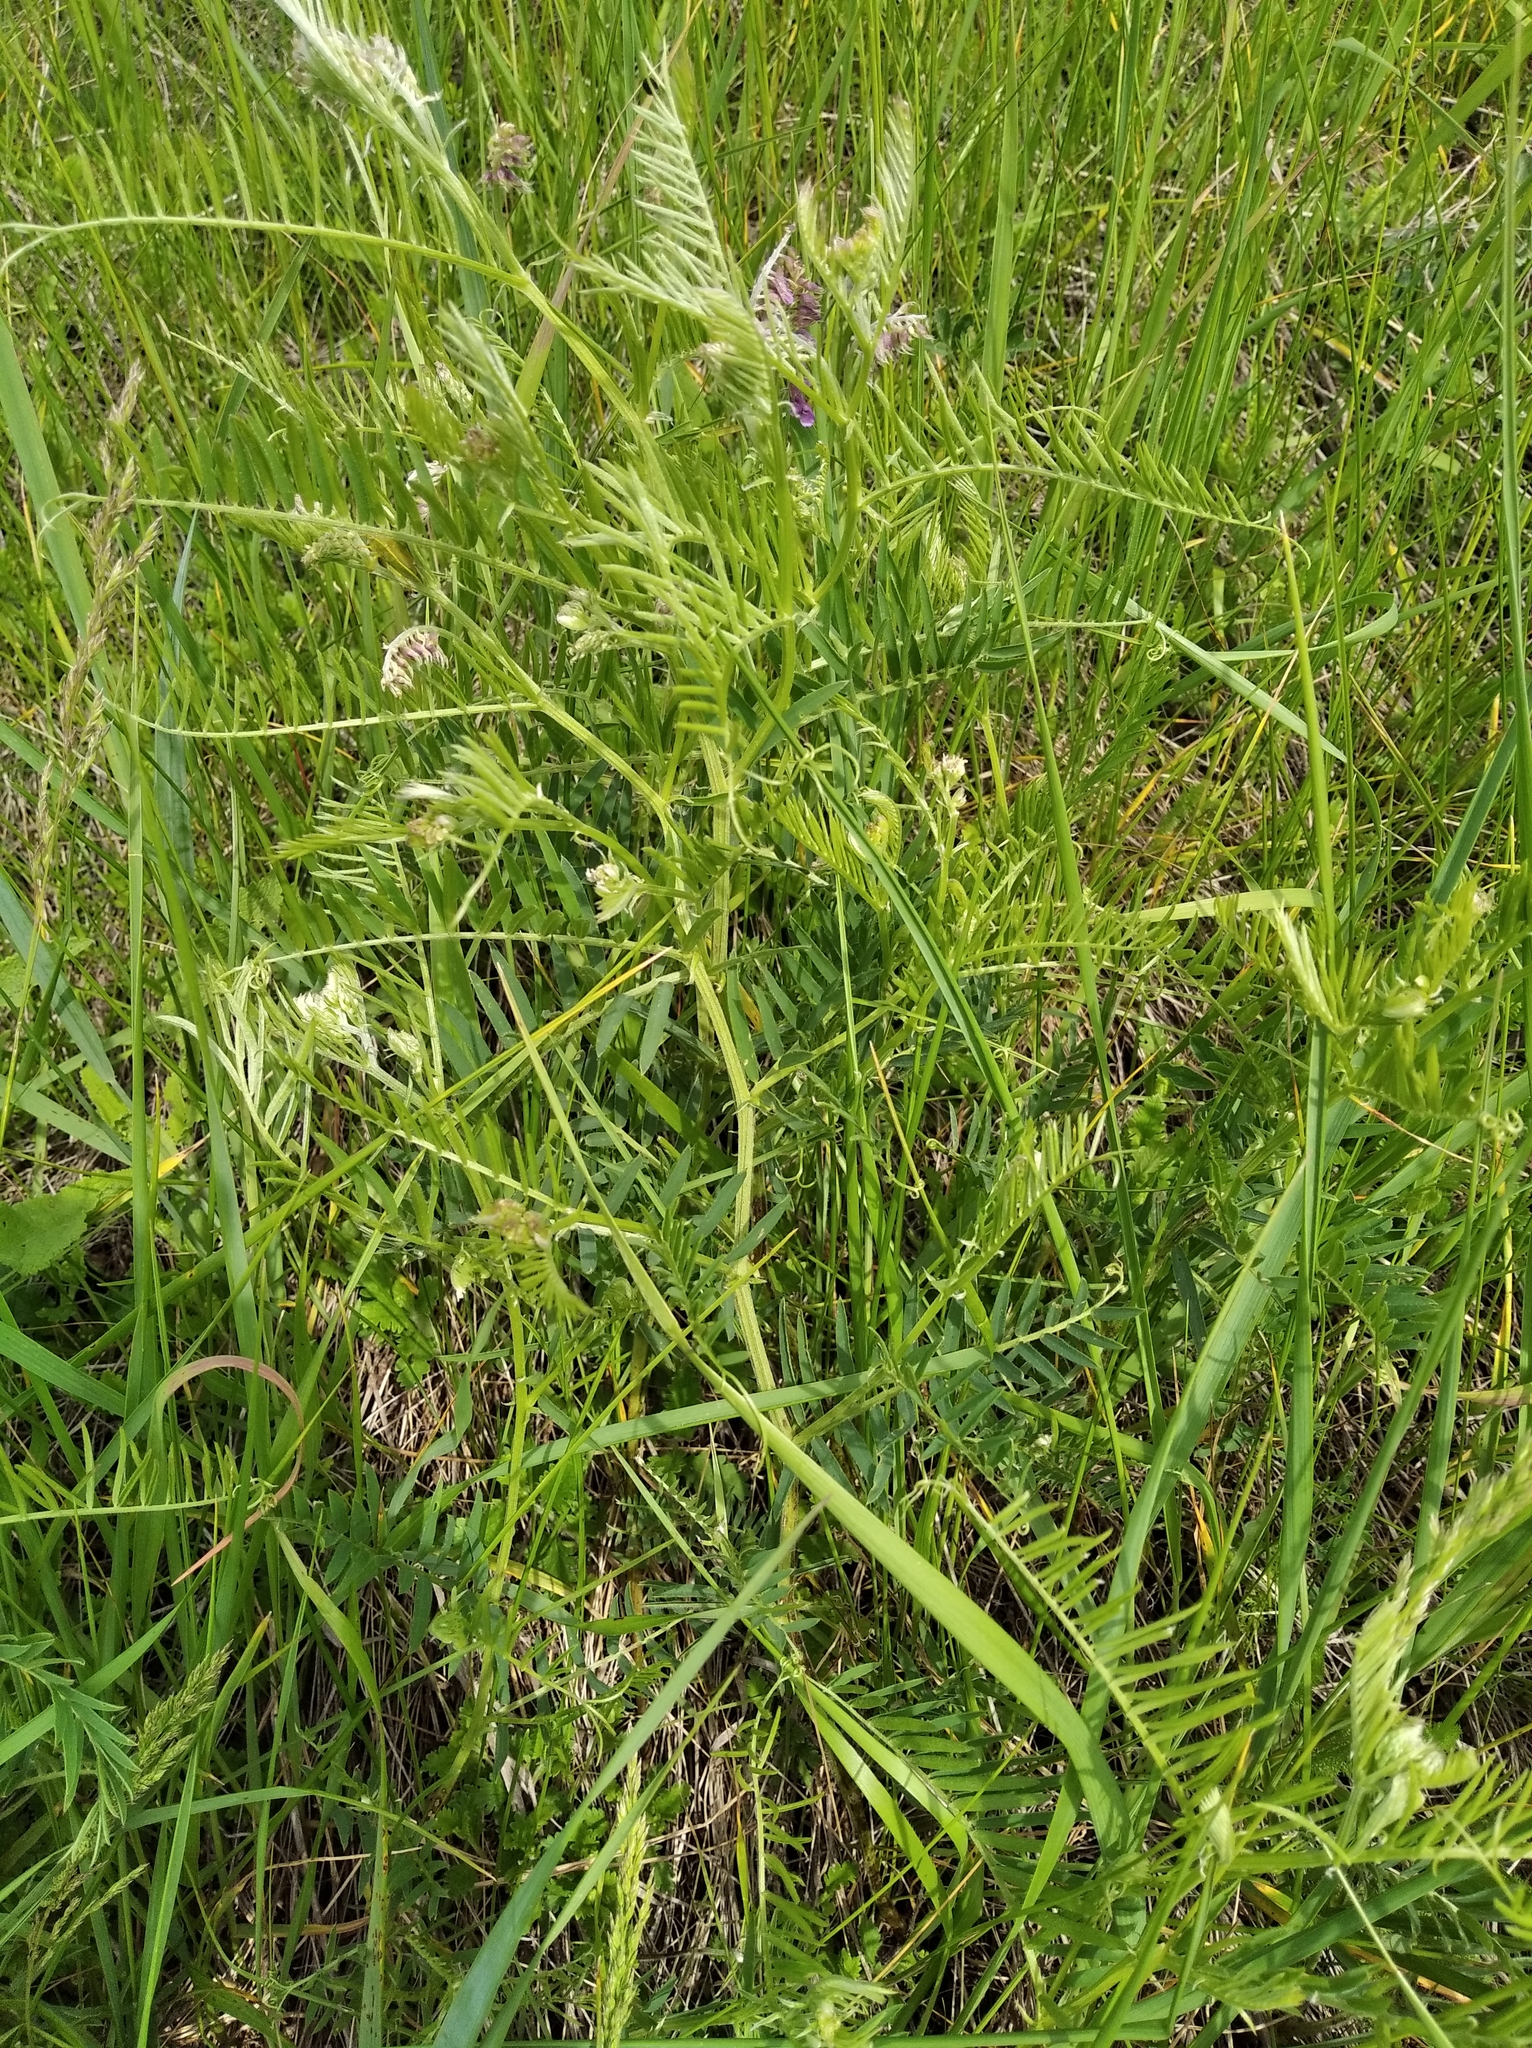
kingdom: Plantae
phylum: Tracheophyta
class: Magnoliopsida
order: Fabales
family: Fabaceae
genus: Vicia
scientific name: Vicia villosa
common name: Fodder vetch
